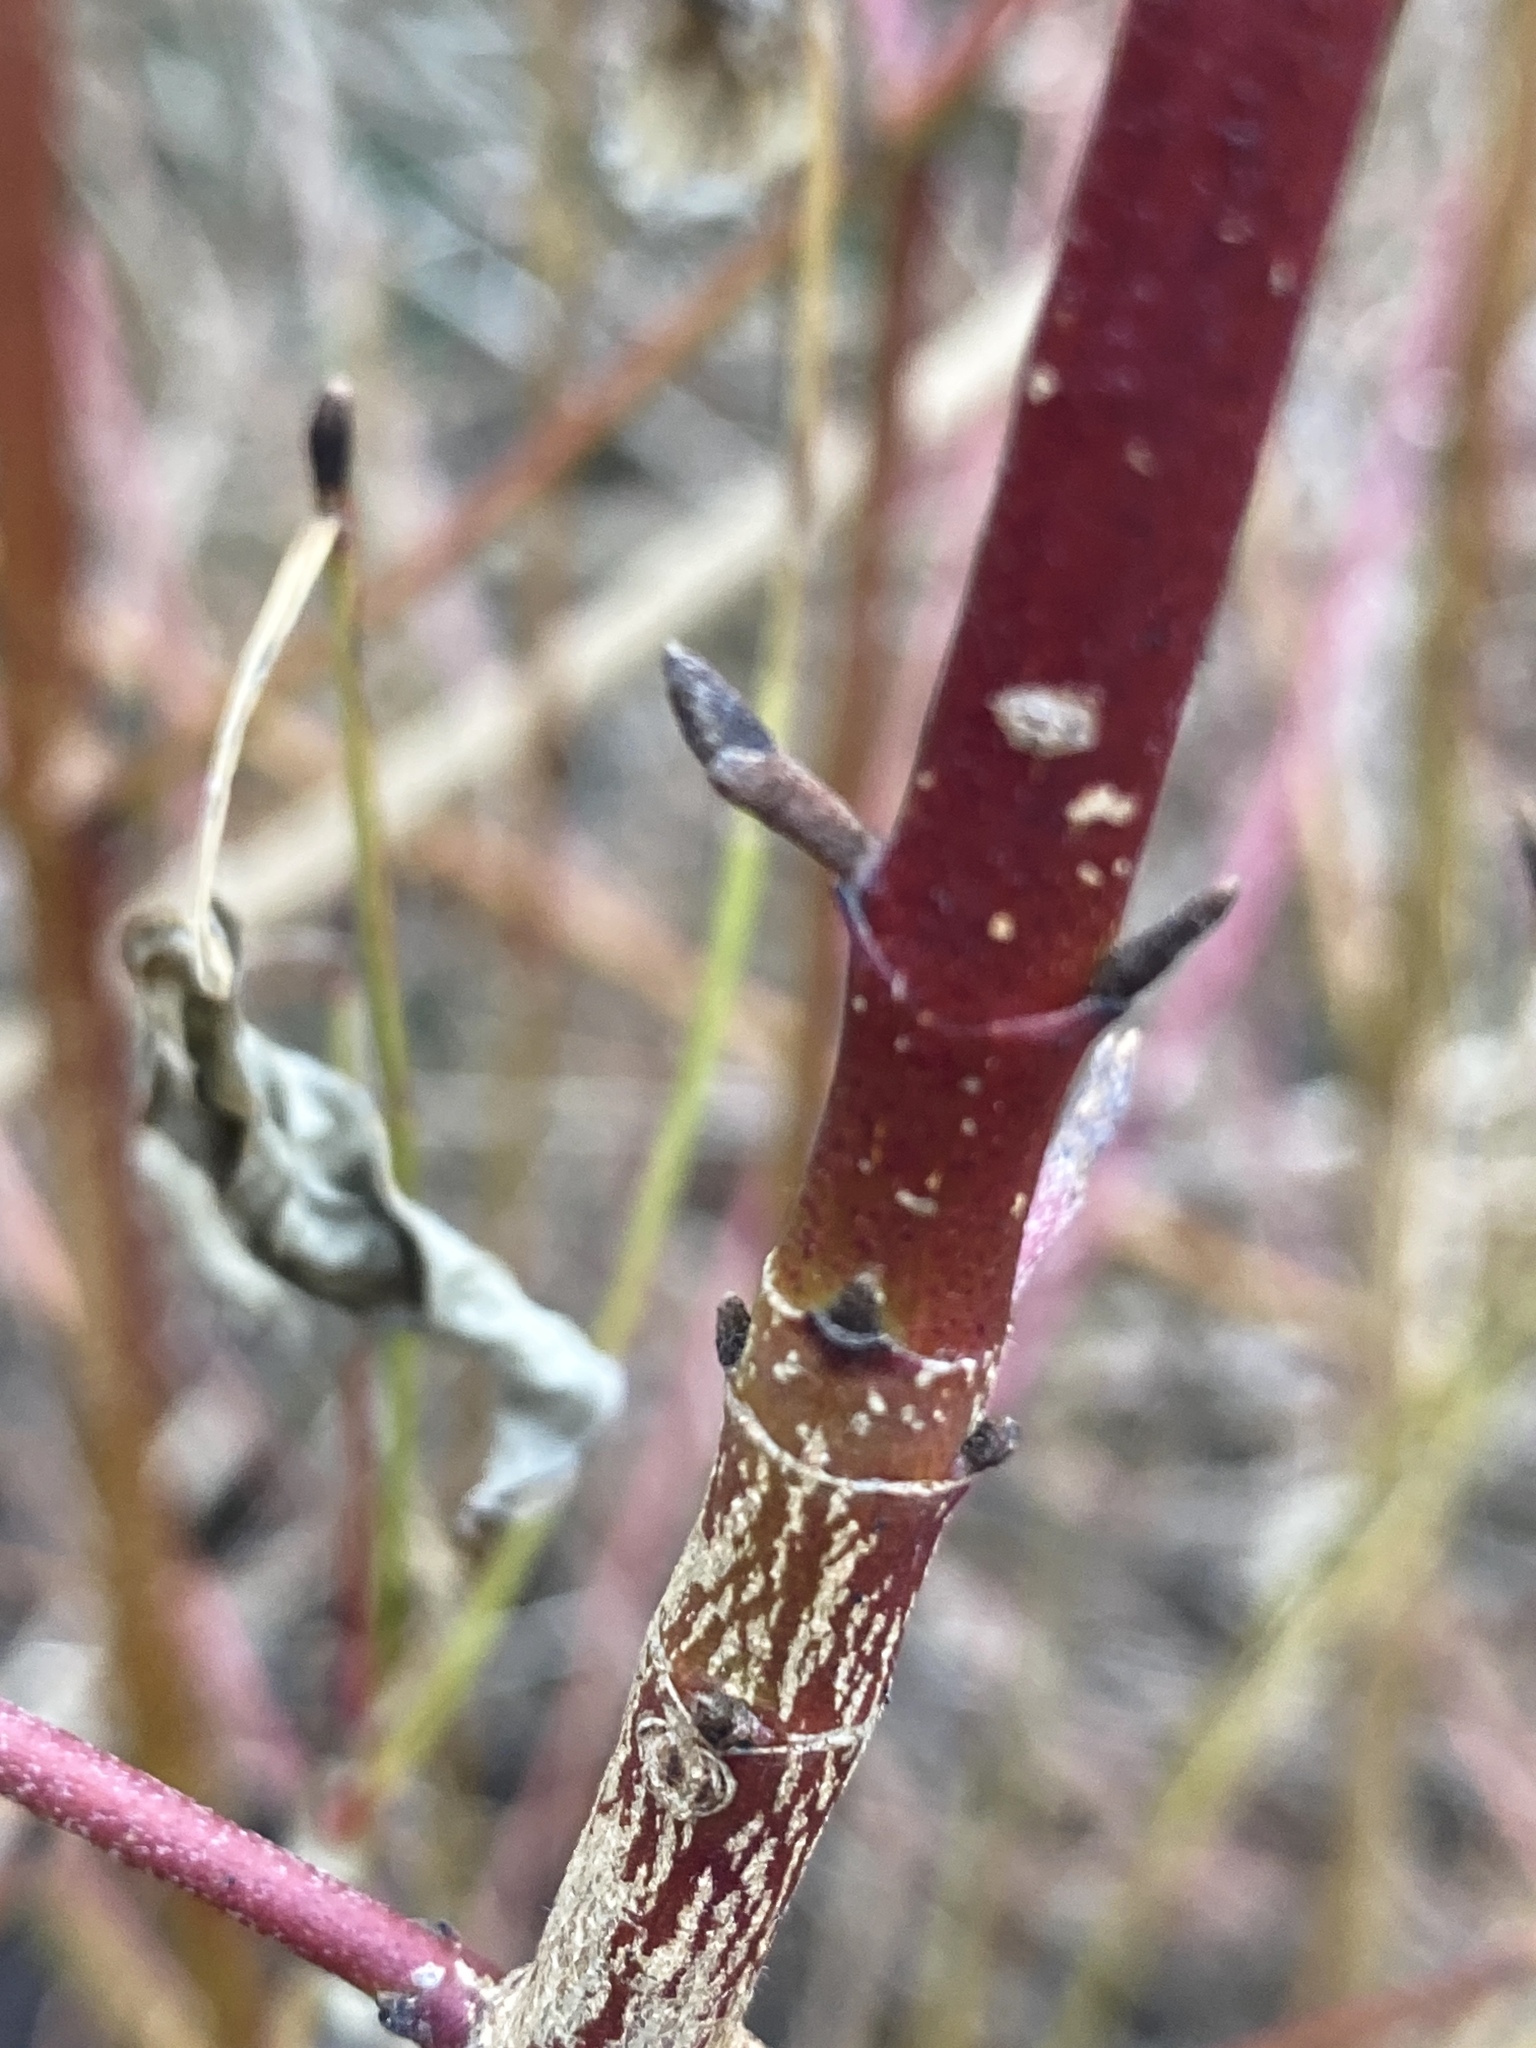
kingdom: Plantae
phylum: Tracheophyta
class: Magnoliopsida
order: Cornales
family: Cornaceae
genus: Cornus
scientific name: Cornus amomum
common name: Silky dogwood
